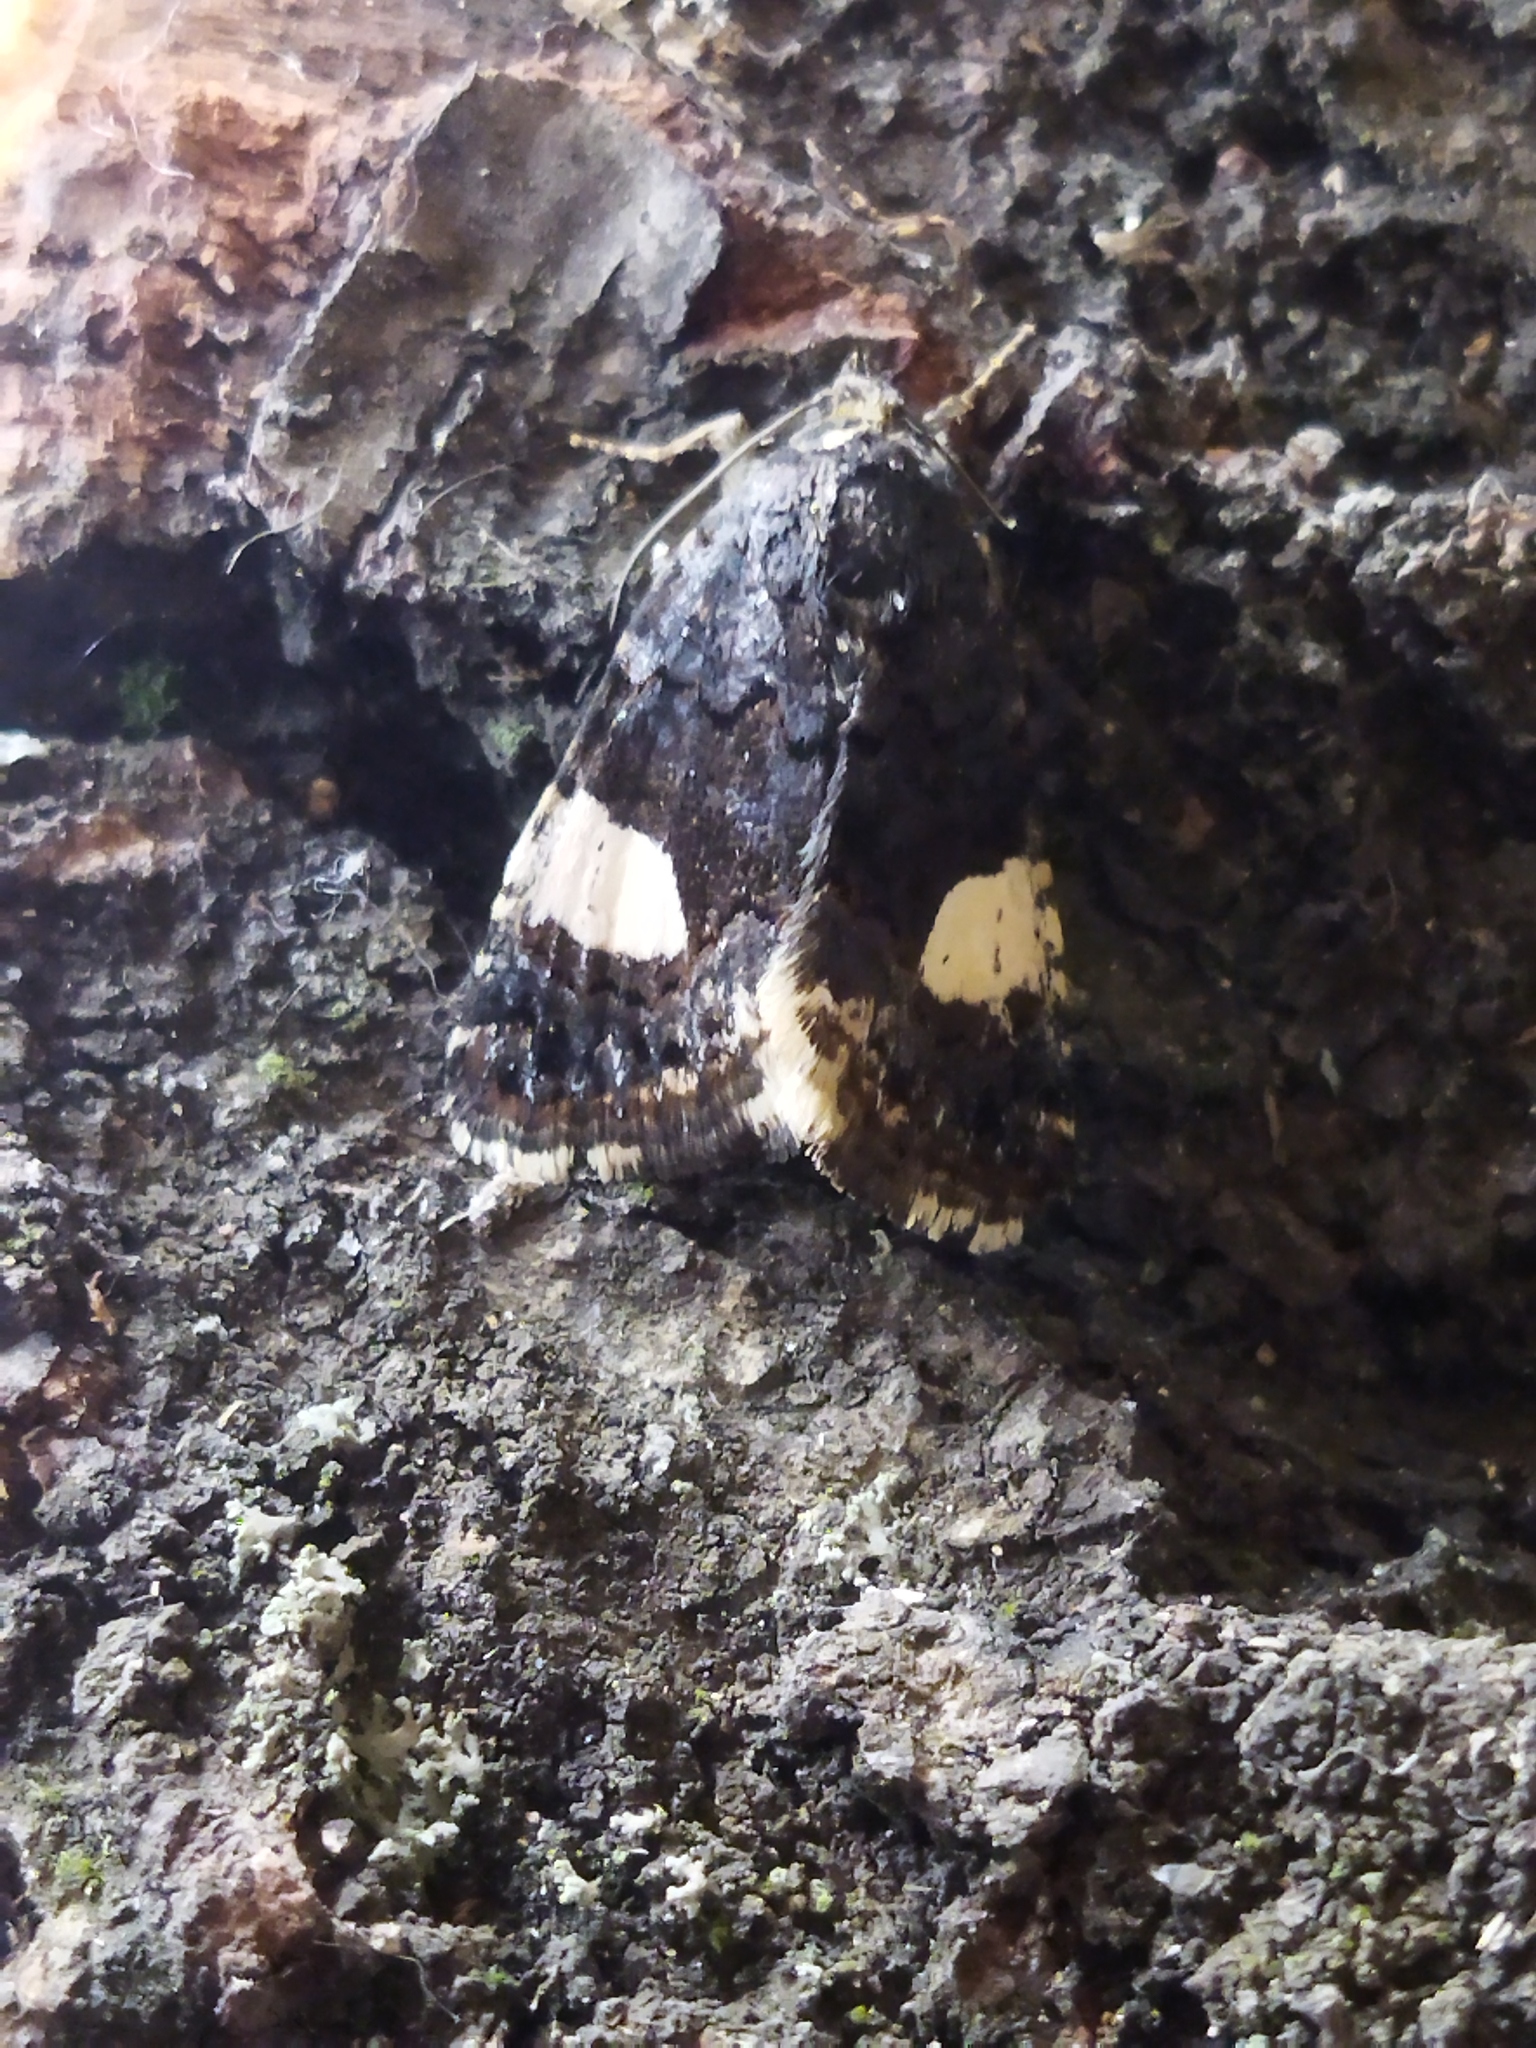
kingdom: Animalia
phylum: Arthropoda
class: Insecta
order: Lepidoptera
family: Erebidae
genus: Tyta
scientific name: Tyta luctuosa
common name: Four-spotted
